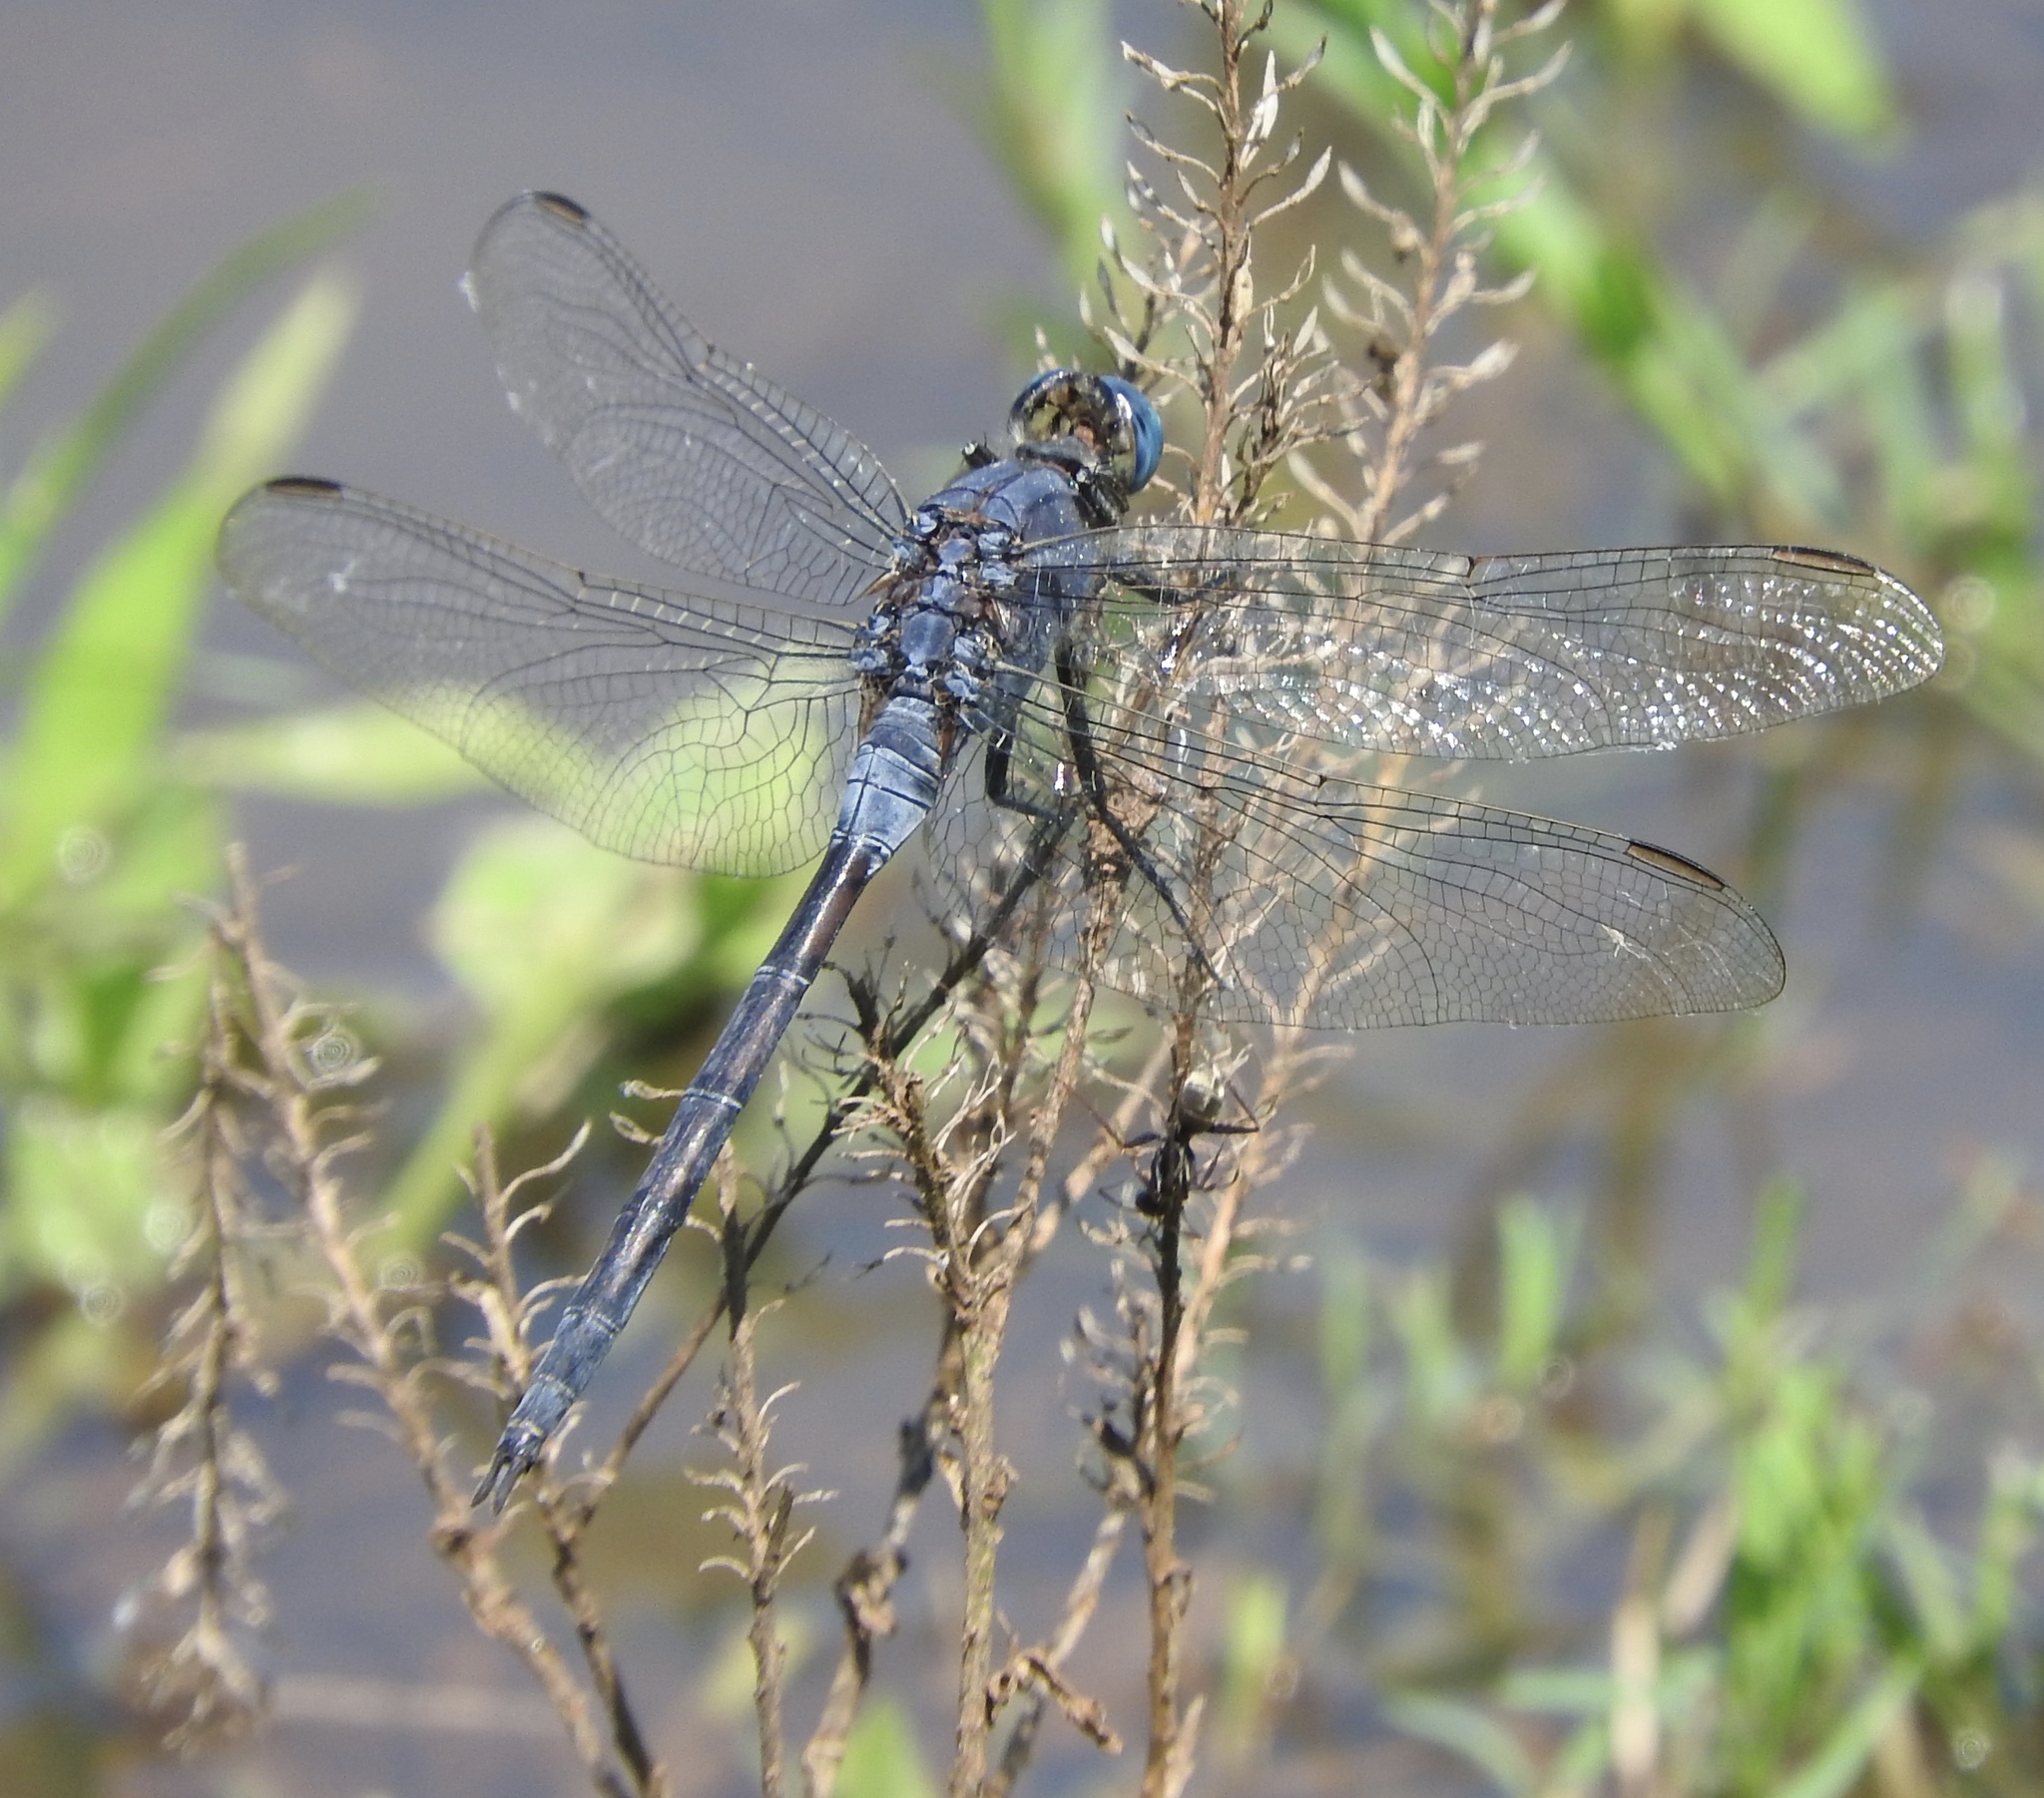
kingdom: Animalia
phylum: Arthropoda
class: Insecta
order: Odonata
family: Libellulidae
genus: Orthetrum
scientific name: Orthetrum trinacria
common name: Long skimmer
